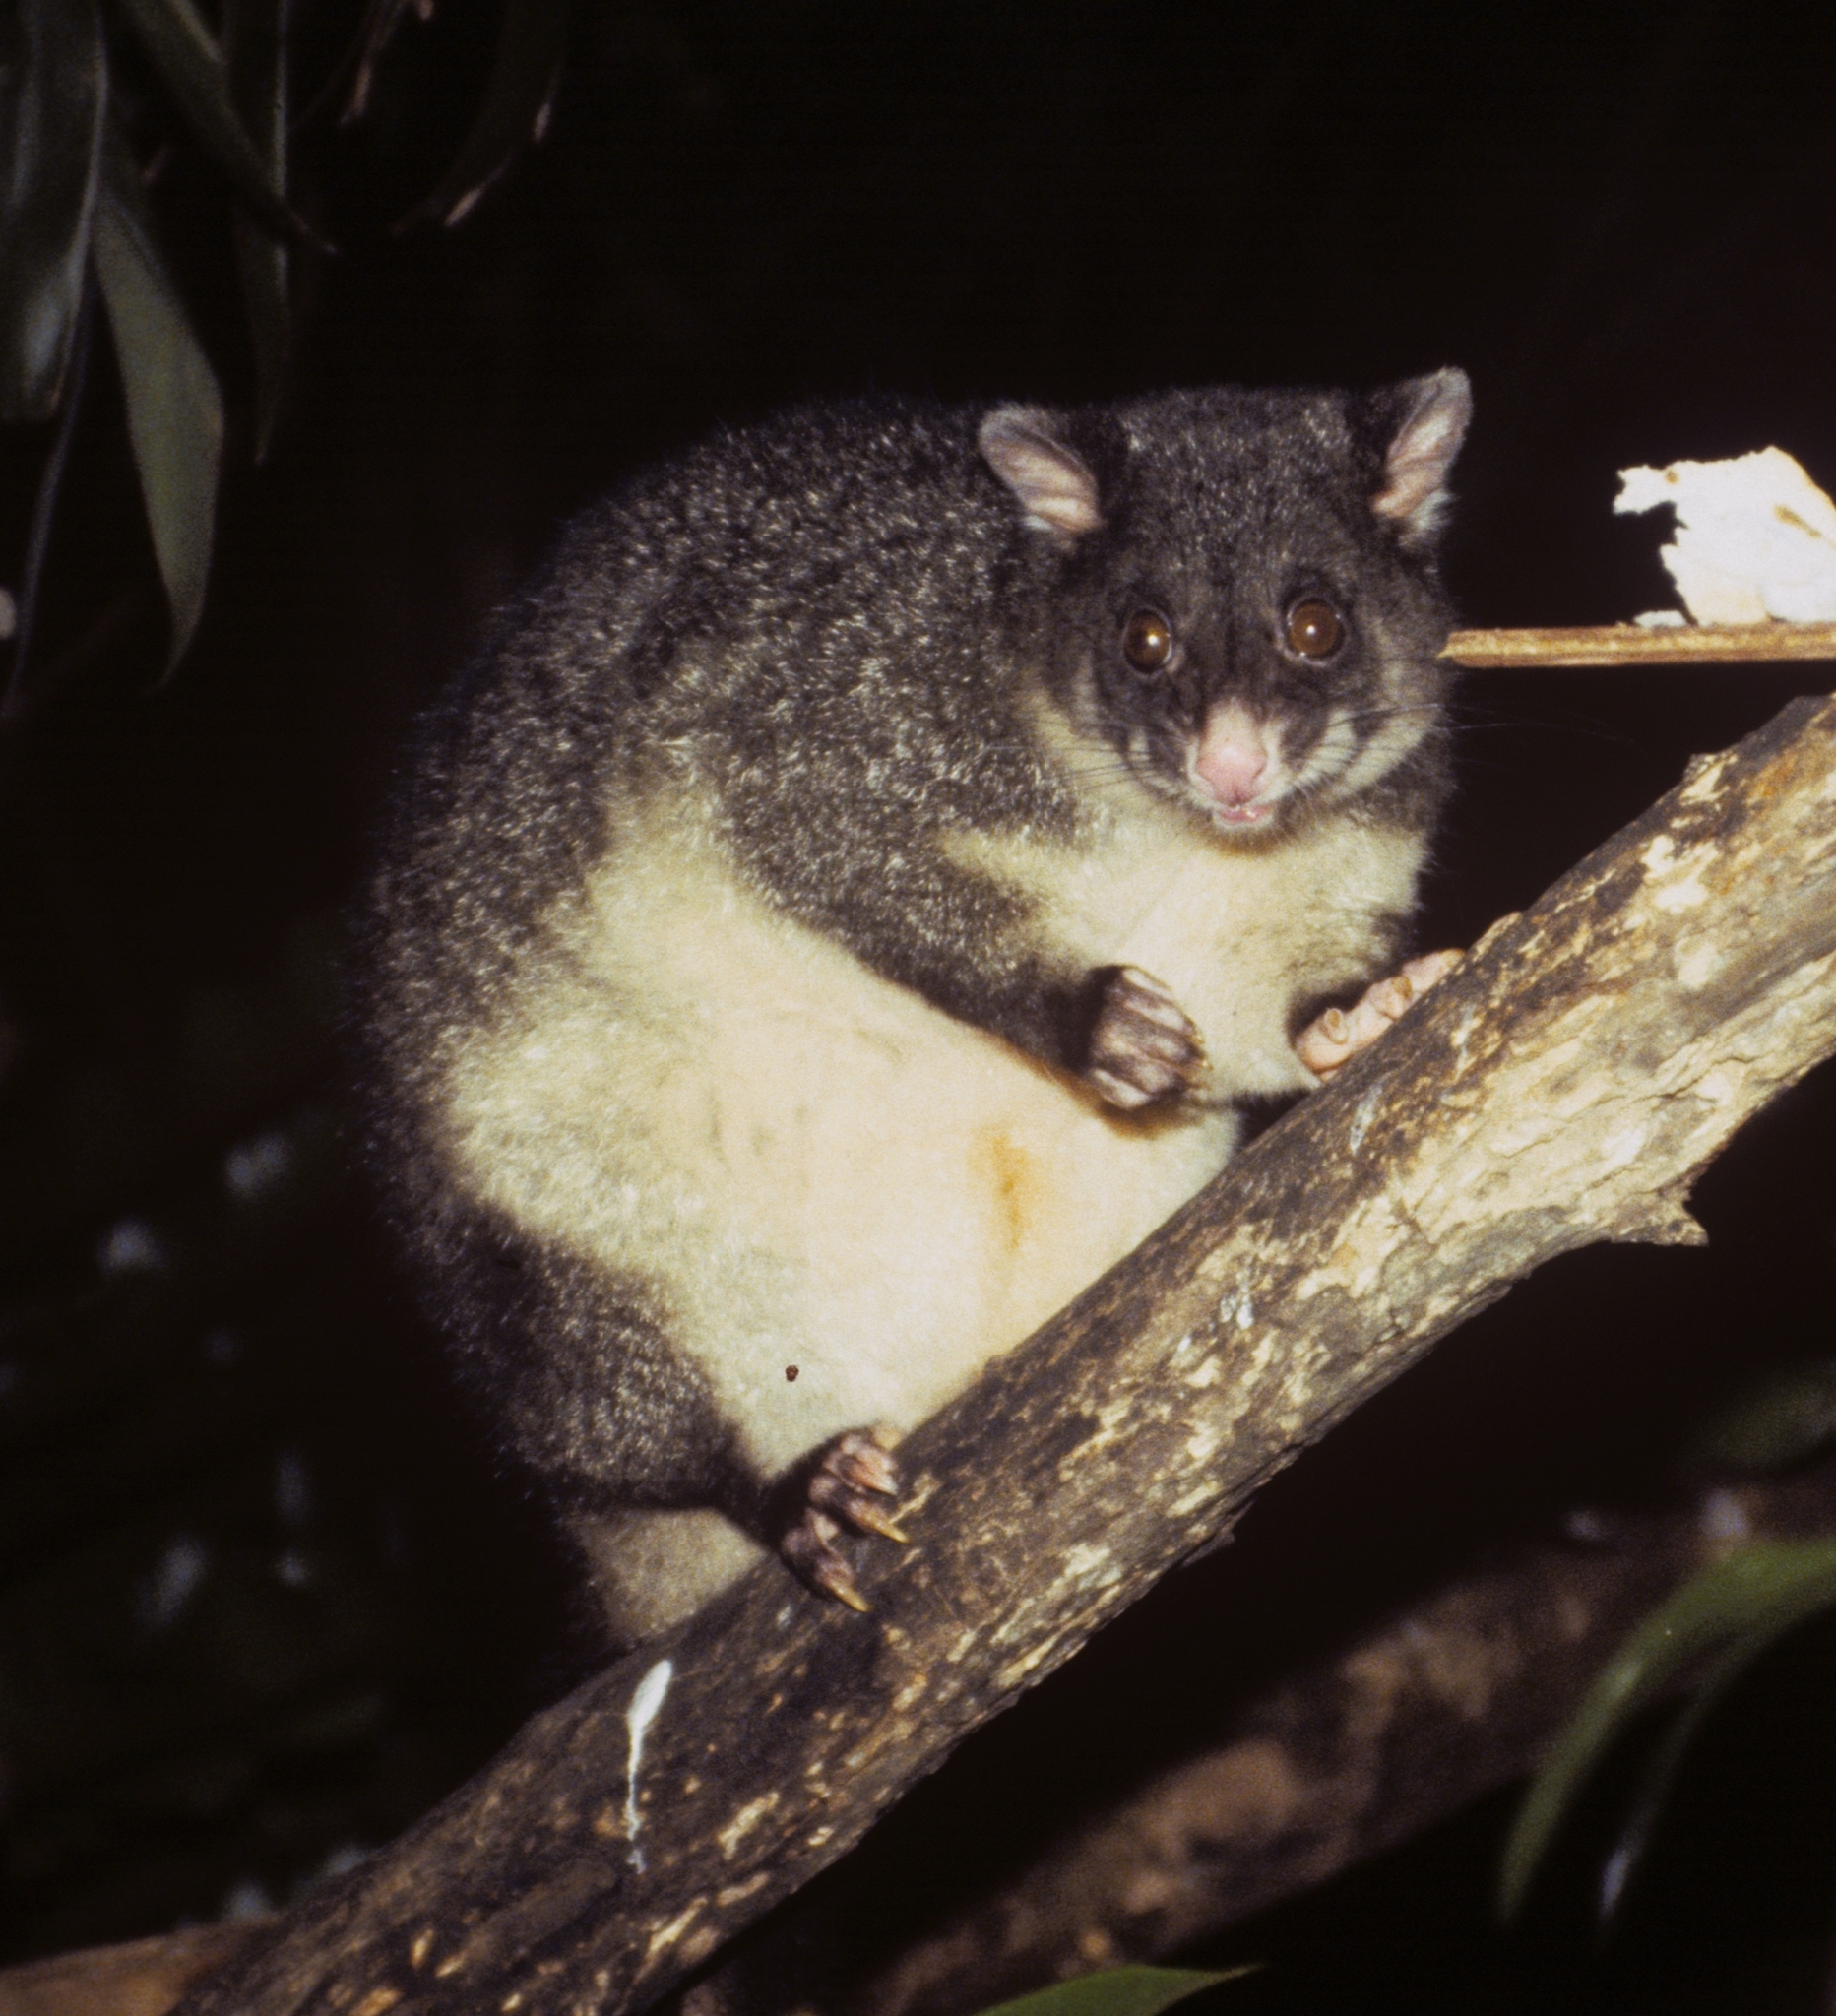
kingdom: Animalia
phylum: Chordata
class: Mammalia
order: Diprotodontia
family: Phalangeridae
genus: Trichosurus
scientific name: Trichosurus caninus
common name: Short-eared possum
